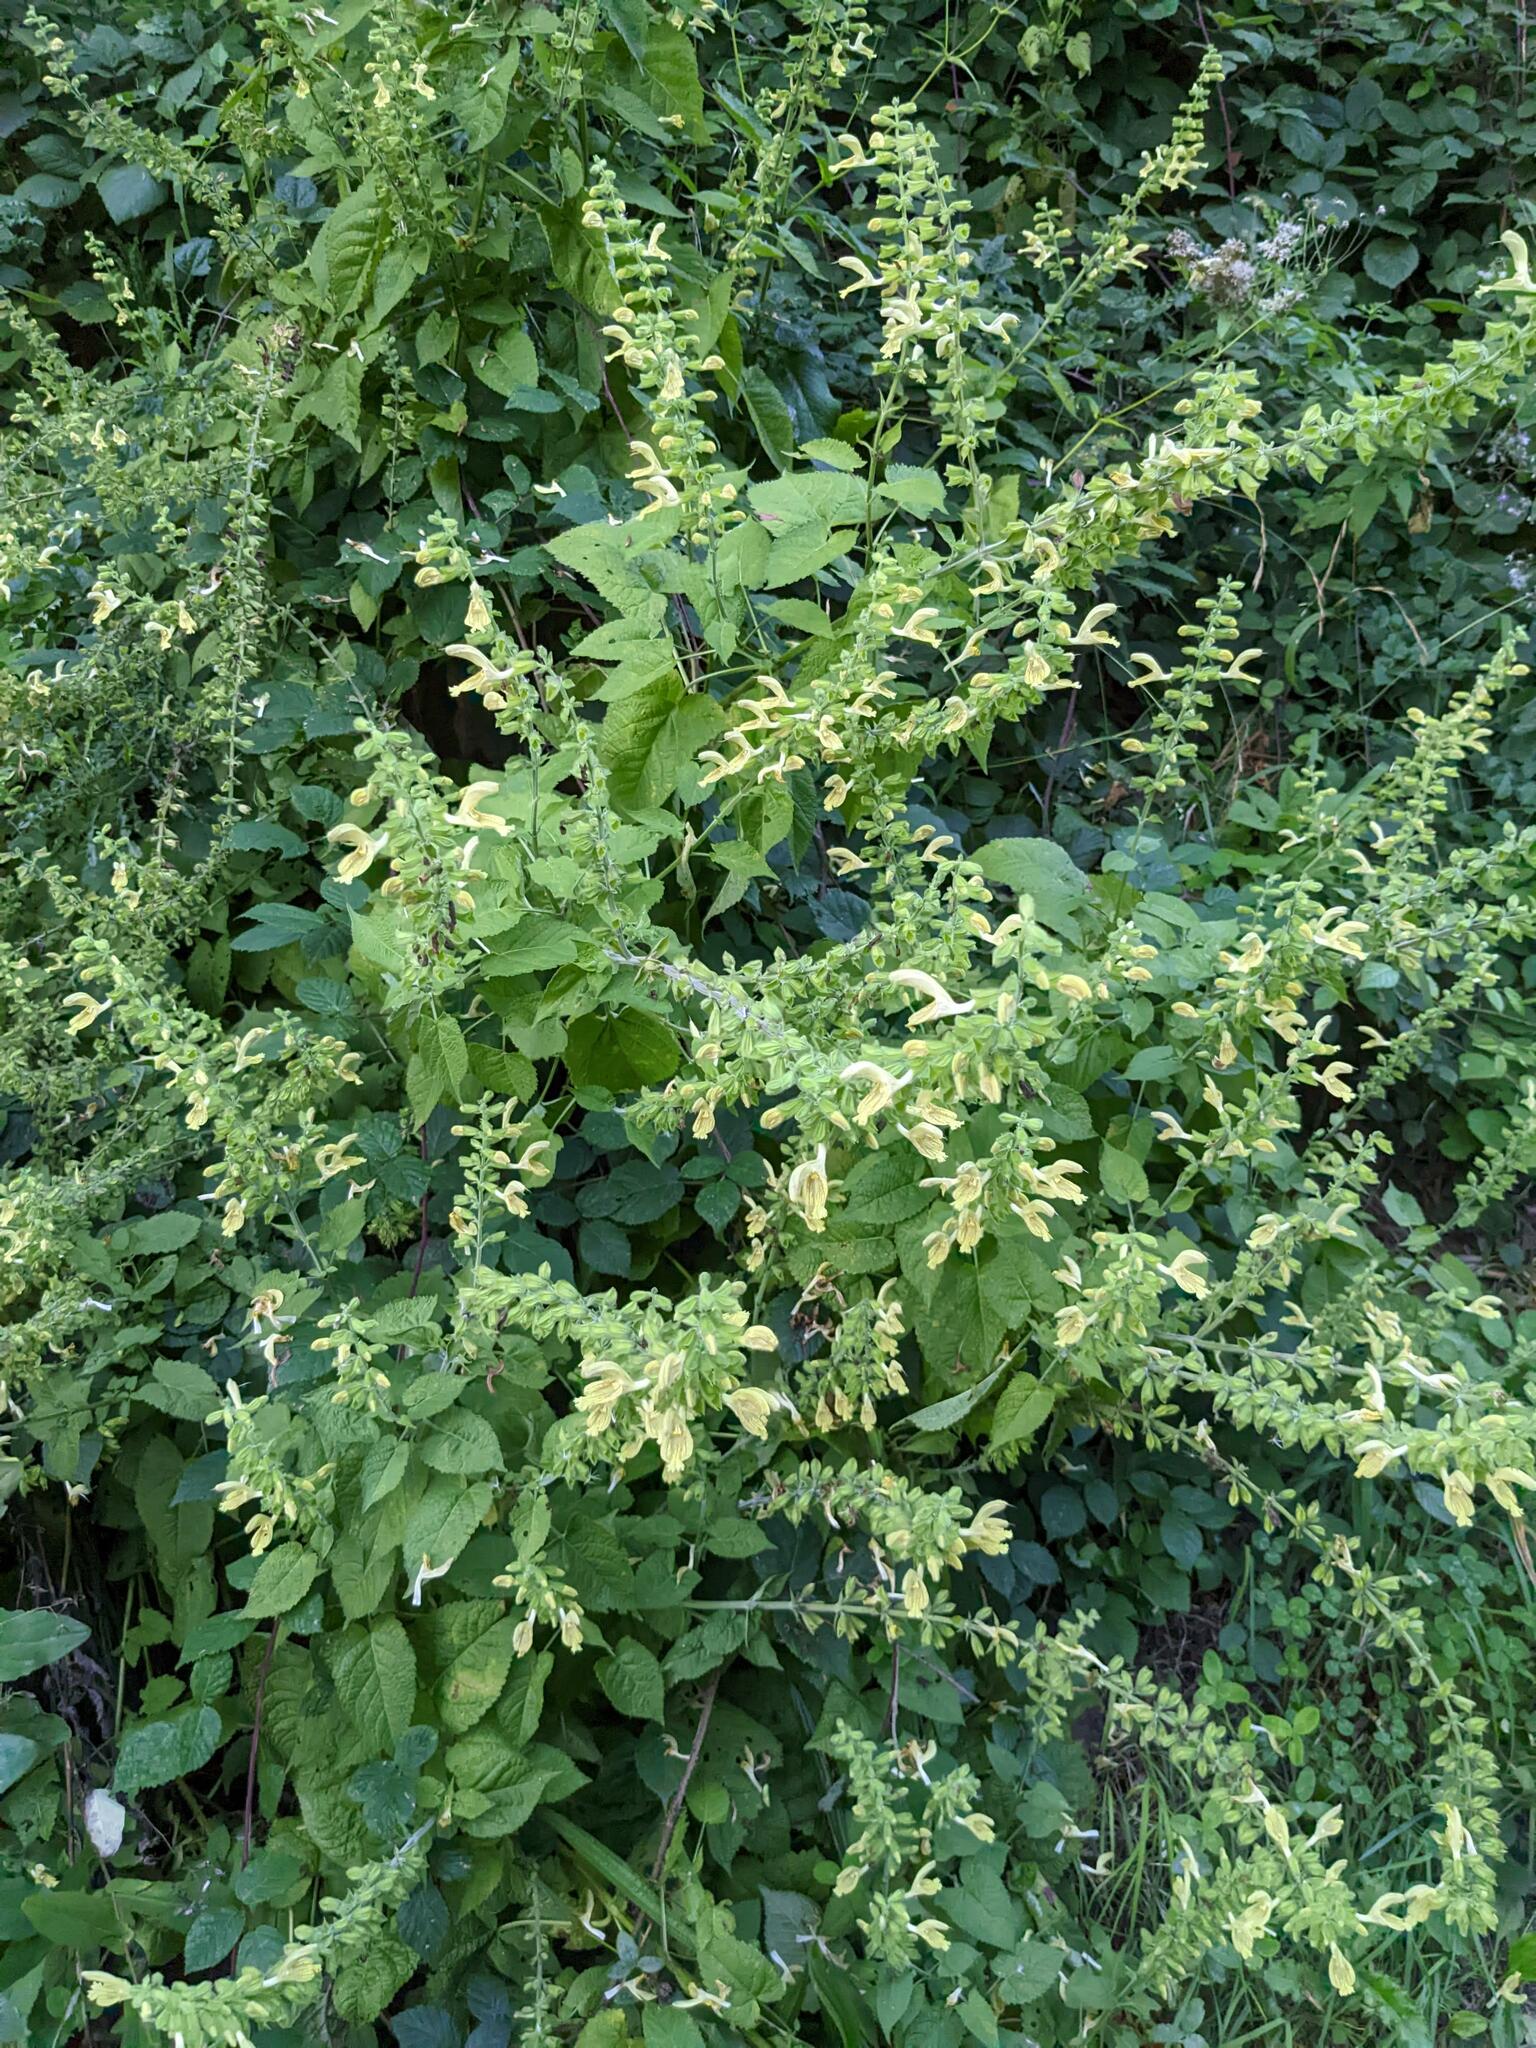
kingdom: Plantae
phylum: Tracheophyta
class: Magnoliopsida
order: Lamiales
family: Lamiaceae
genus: Salvia
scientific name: Salvia glutinosa
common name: Sticky clary
